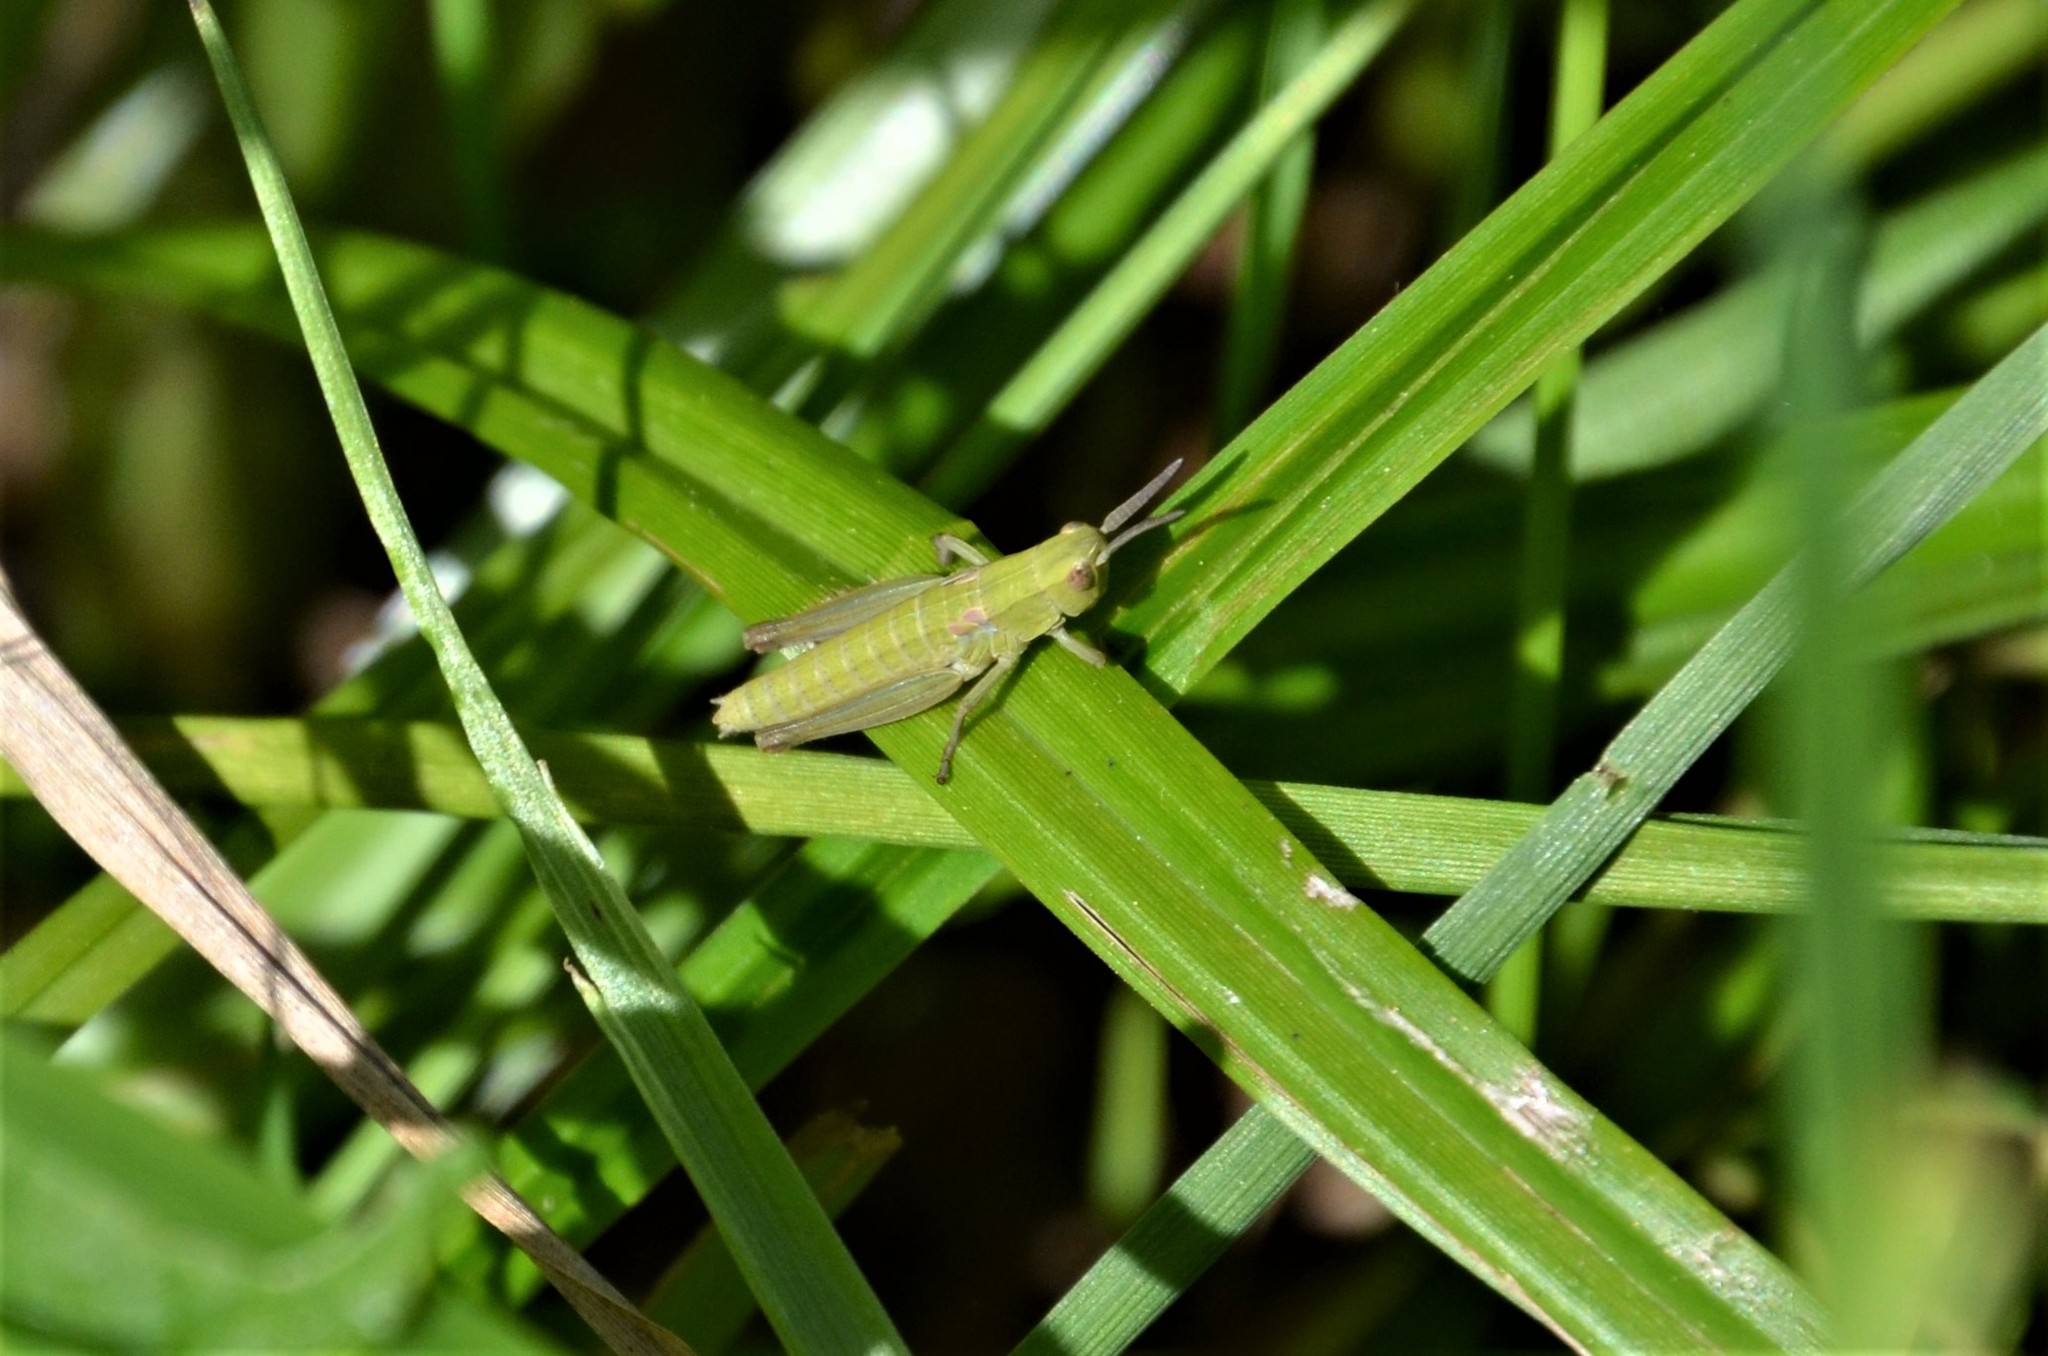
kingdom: Animalia
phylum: Arthropoda
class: Insecta
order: Orthoptera
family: Acrididae
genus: Euthystira
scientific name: Euthystira brachyptera
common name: Small gold grasshopper
